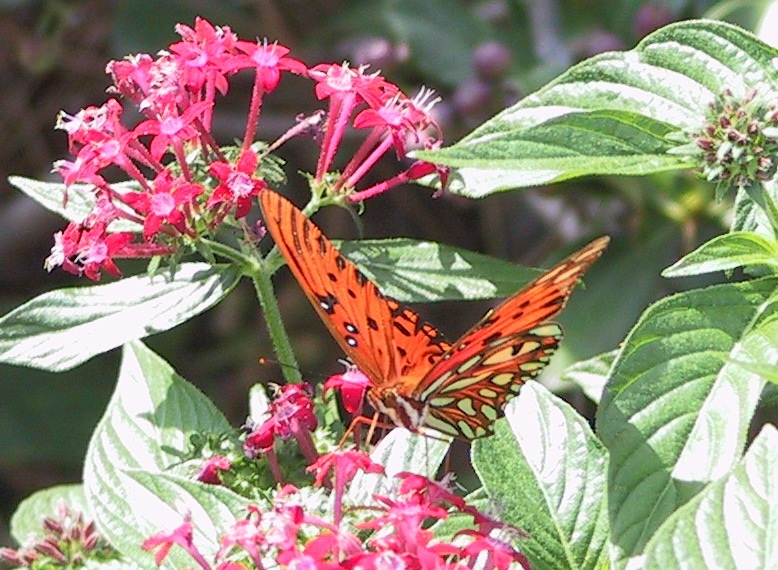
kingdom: Animalia
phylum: Arthropoda
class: Insecta
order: Lepidoptera
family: Nymphalidae
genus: Dione
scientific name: Dione vanillae
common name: Gulf fritillary
